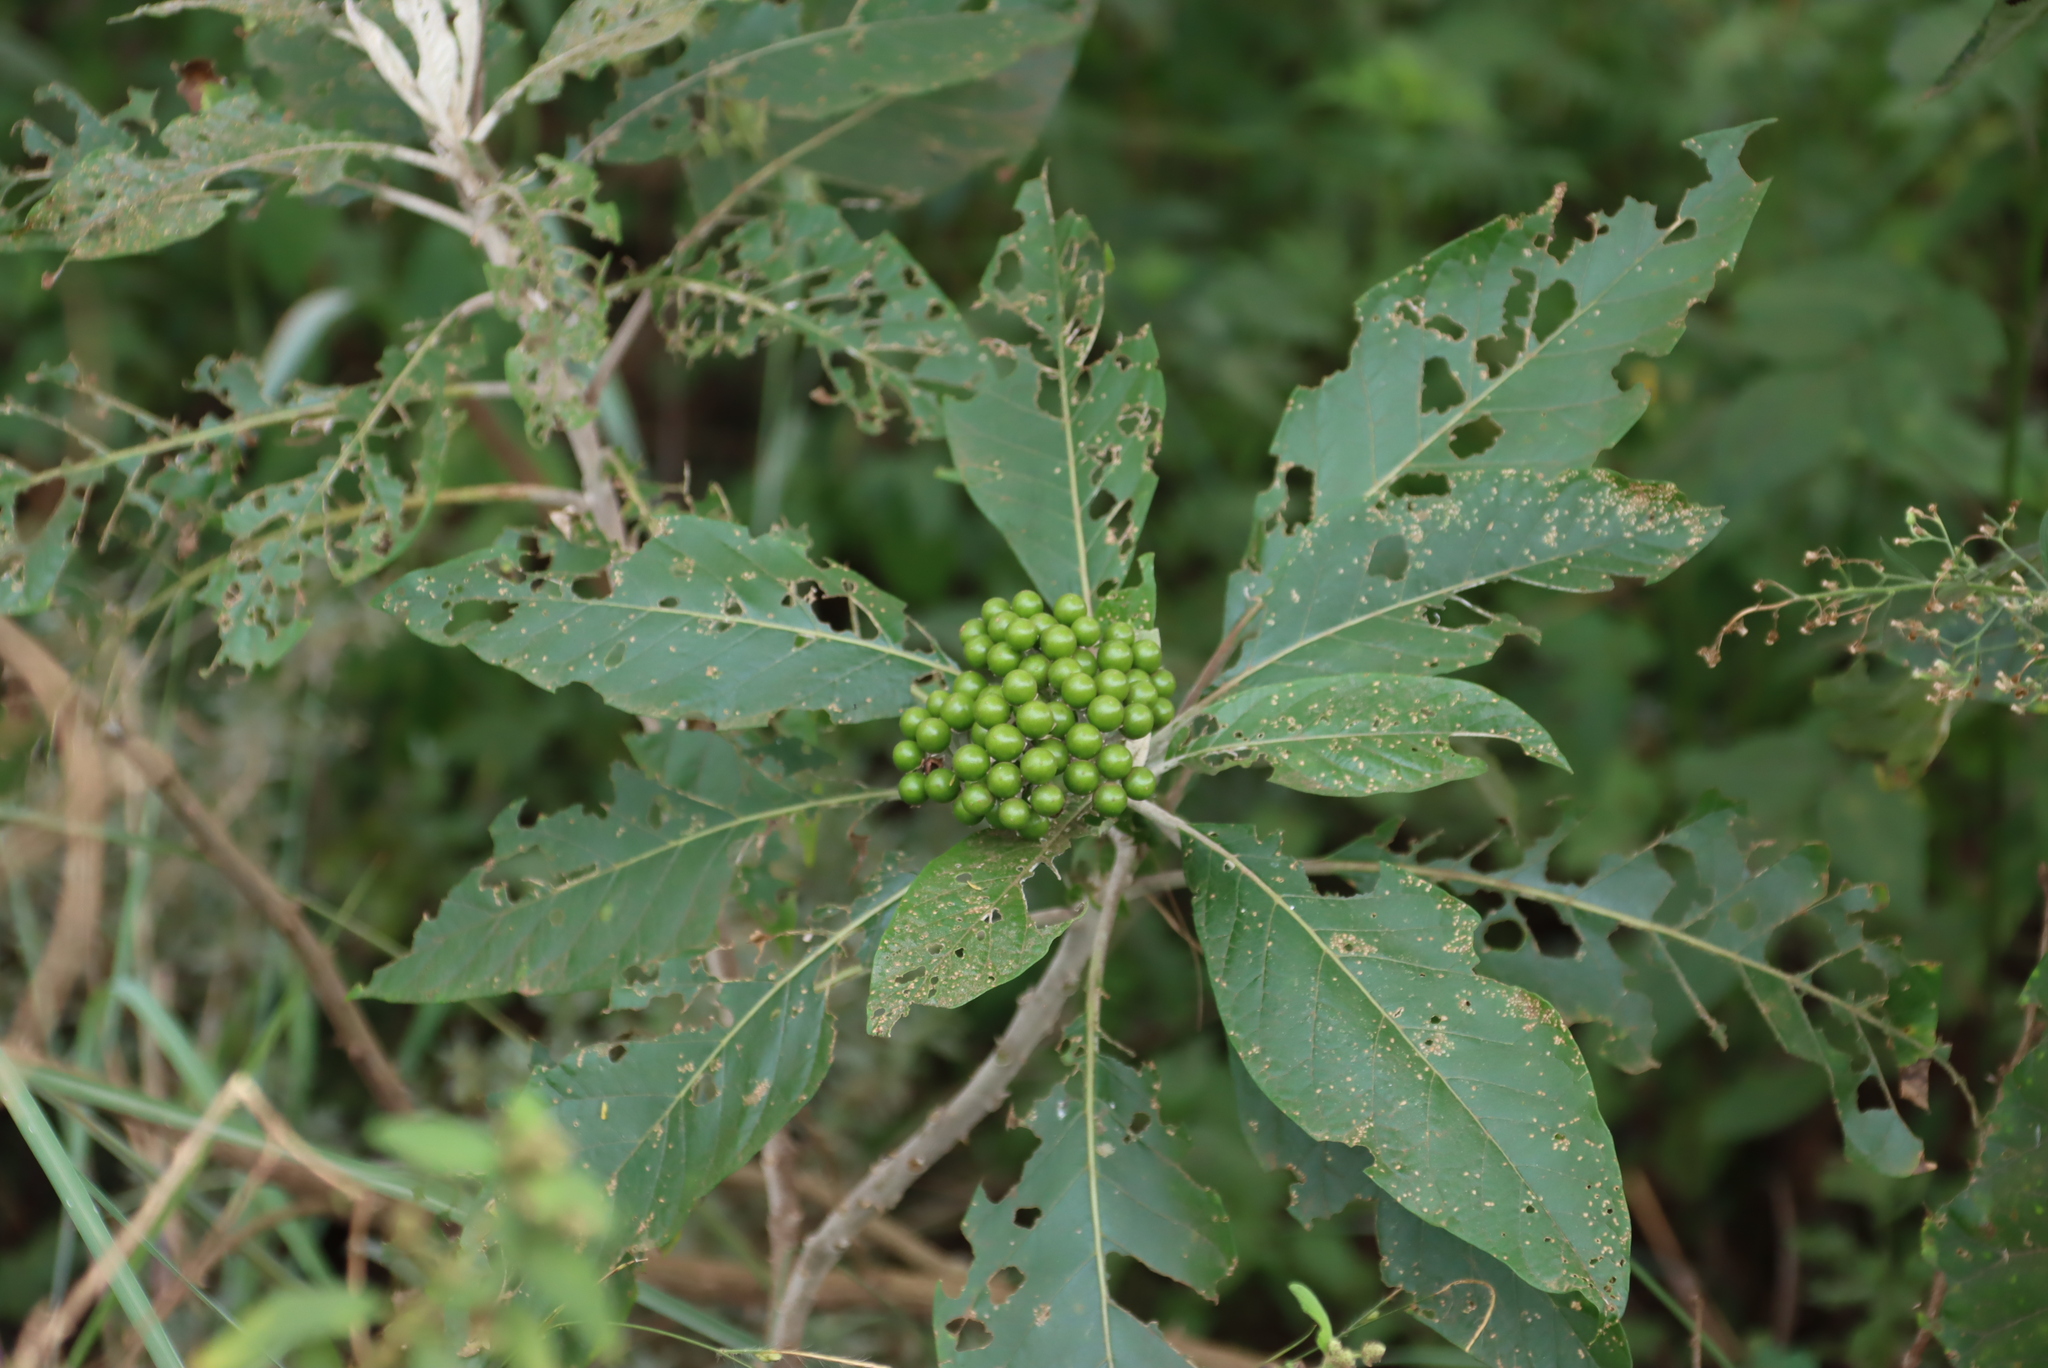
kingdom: Plantae
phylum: Tracheophyta
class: Magnoliopsida
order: Solanales
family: Solanaceae
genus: Solanum
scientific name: Solanum giganteum
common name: Healing-leaf-tree
